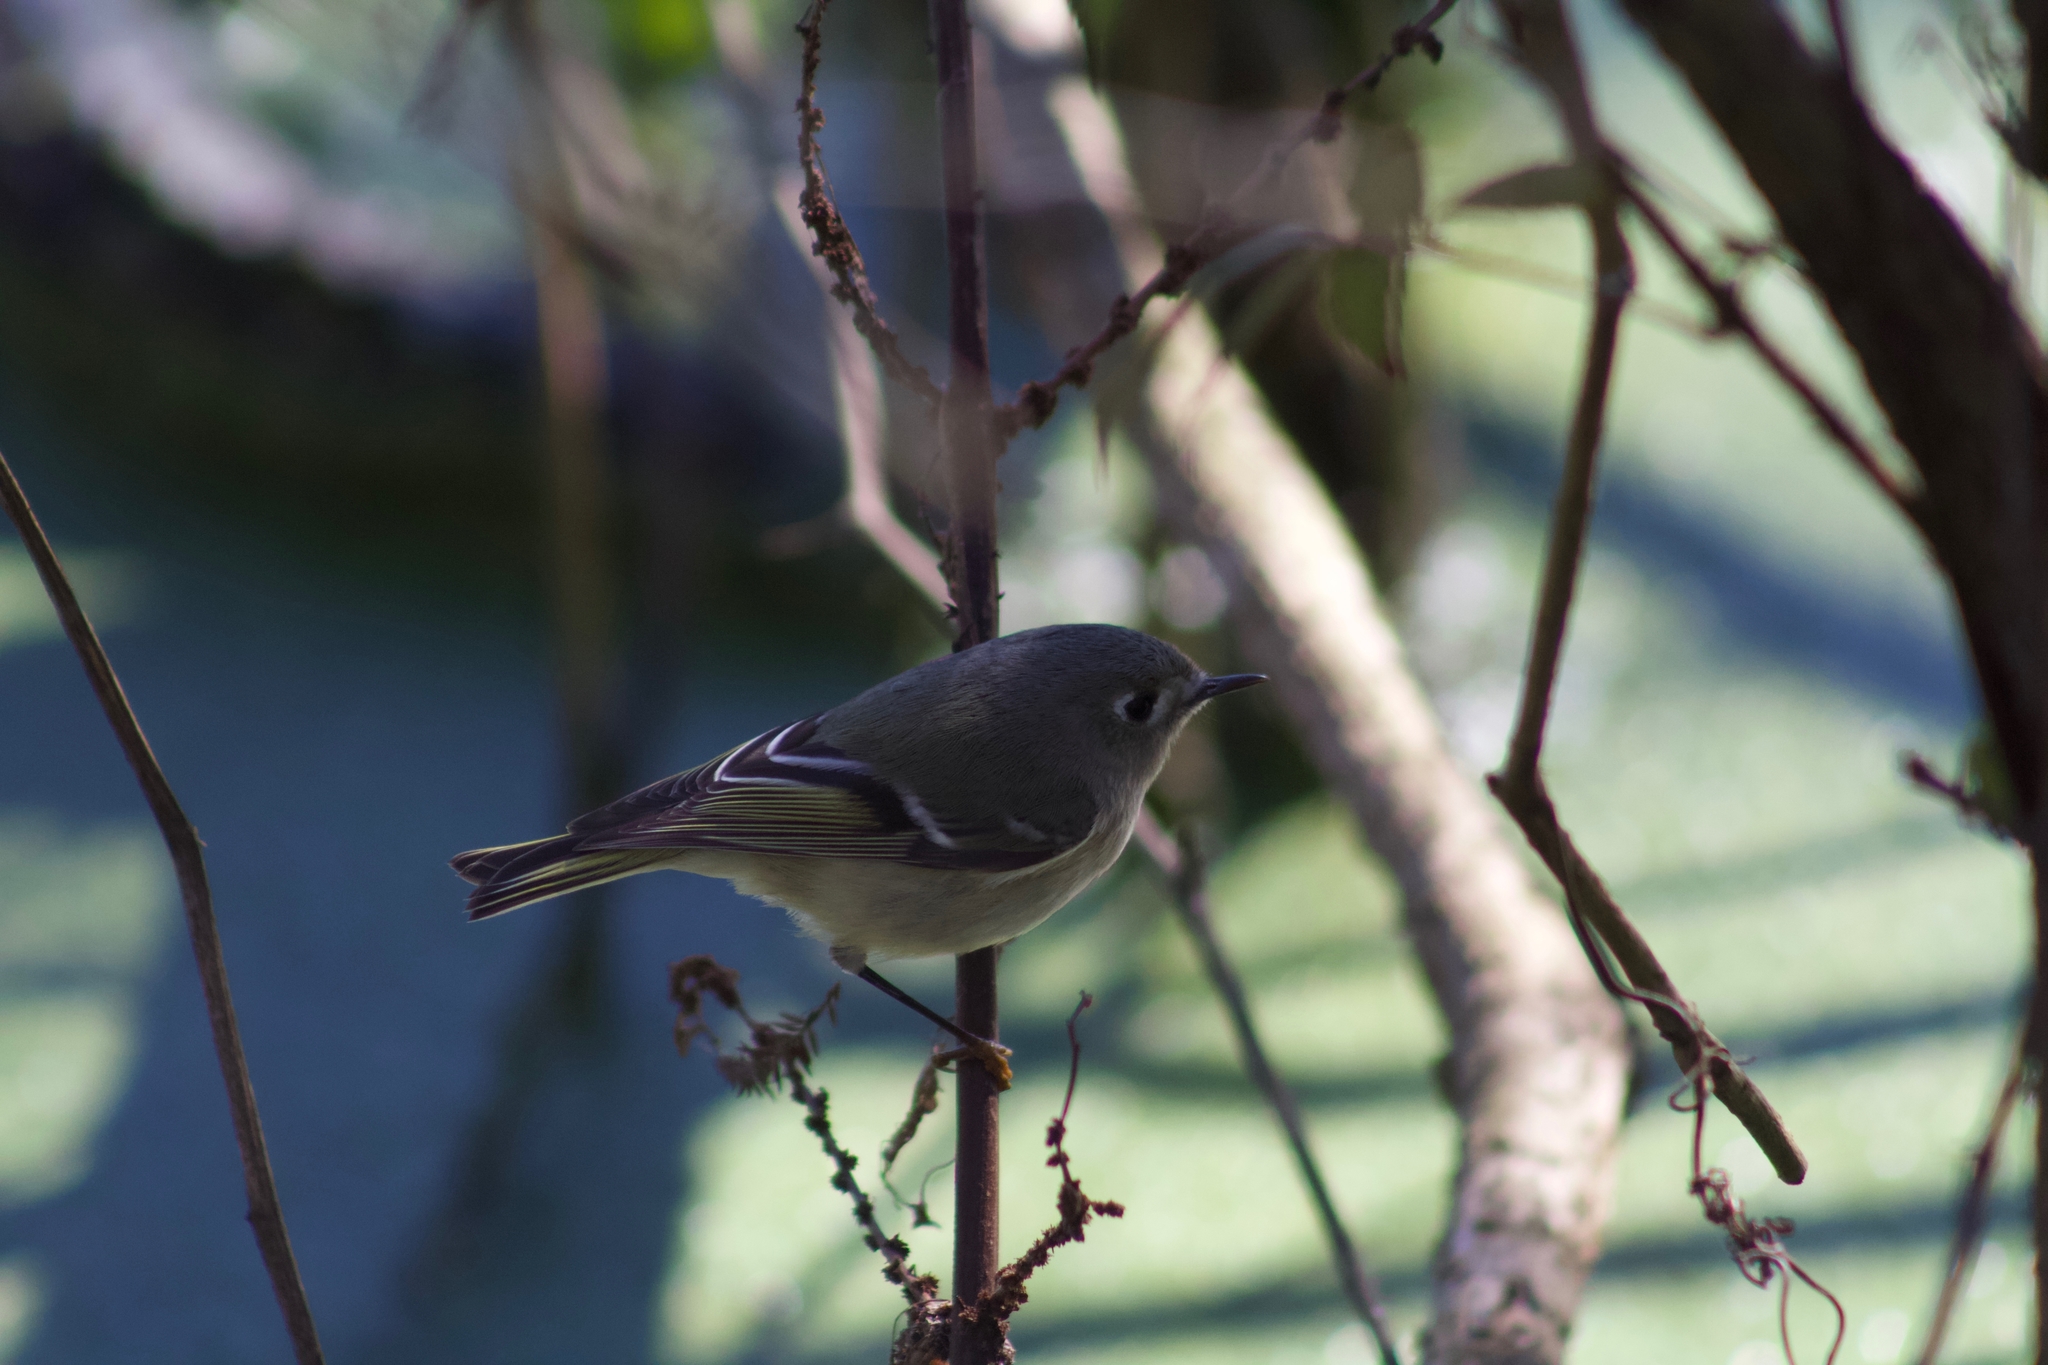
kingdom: Animalia
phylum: Chordata
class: Aves
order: Passeriformes
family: Regulidae
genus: Regulus
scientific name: Regulus calendula
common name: Ruby-crowned kinglet
